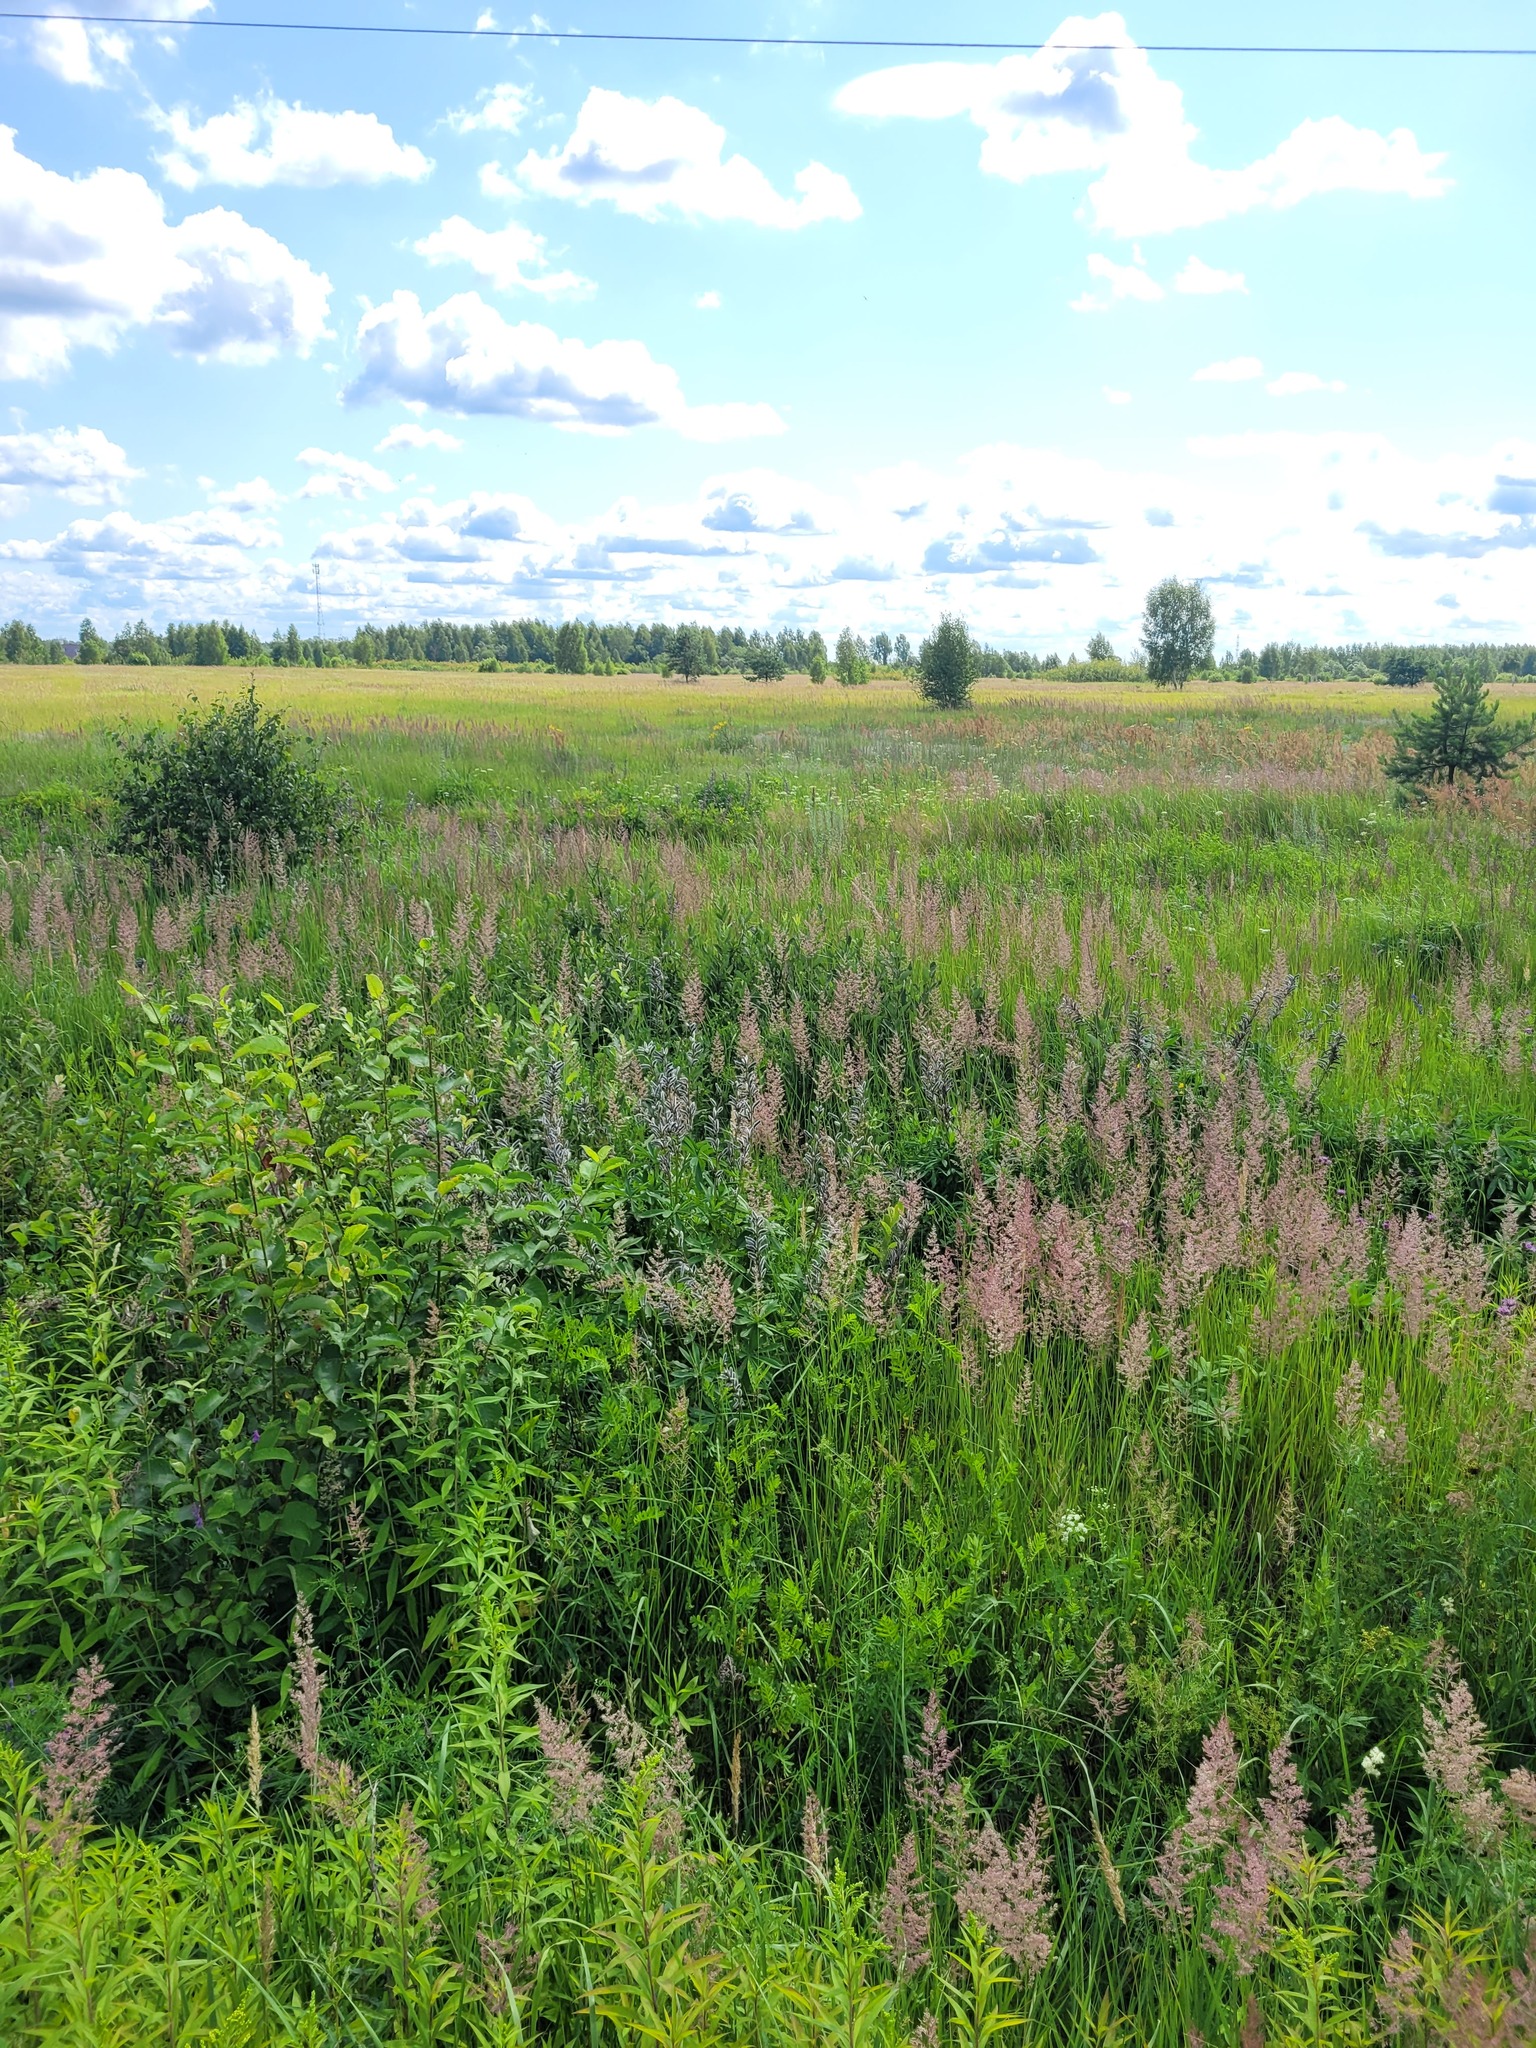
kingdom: Plantae
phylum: Tracheophyta
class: Magnoliopsida
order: Fabales
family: Fabaceae
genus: Lupinus
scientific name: Lupinus polyphyllus
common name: Garden lupin
